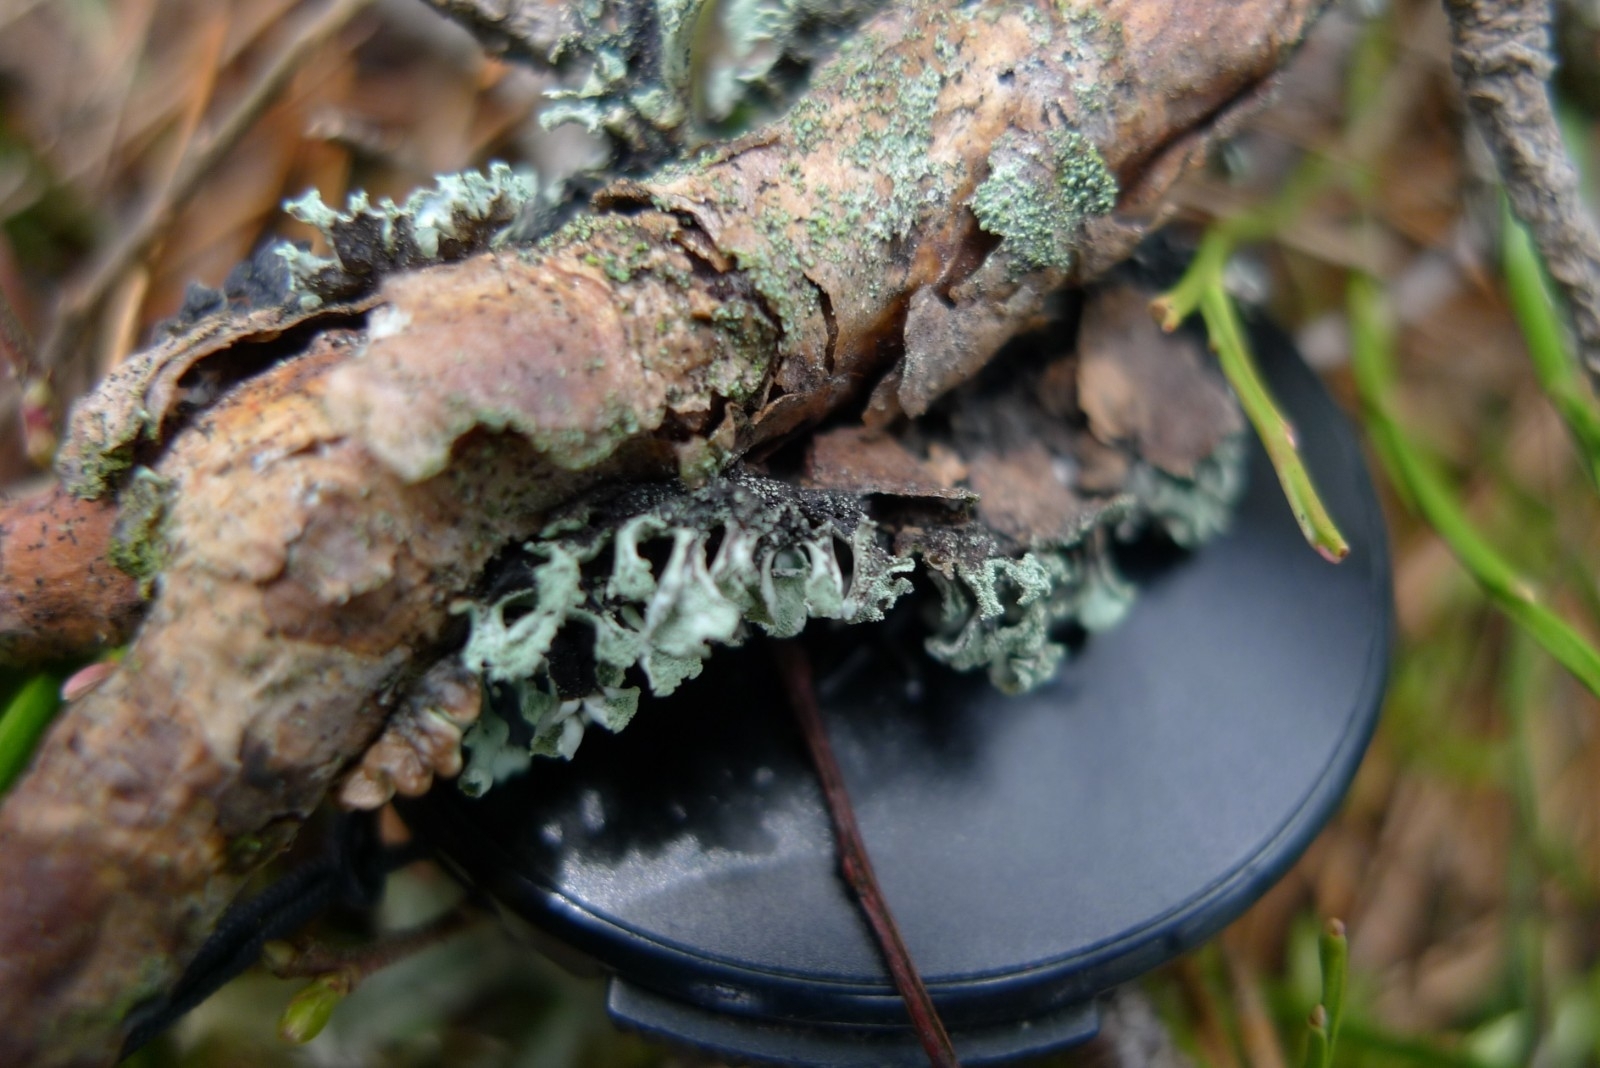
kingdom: Fungi
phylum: Ascomycota
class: Lecanoromycetes
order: Lecanorales
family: Parmeliaceae
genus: Hypogymnia
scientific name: Hypogymnia physodes
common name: Dark crottle
